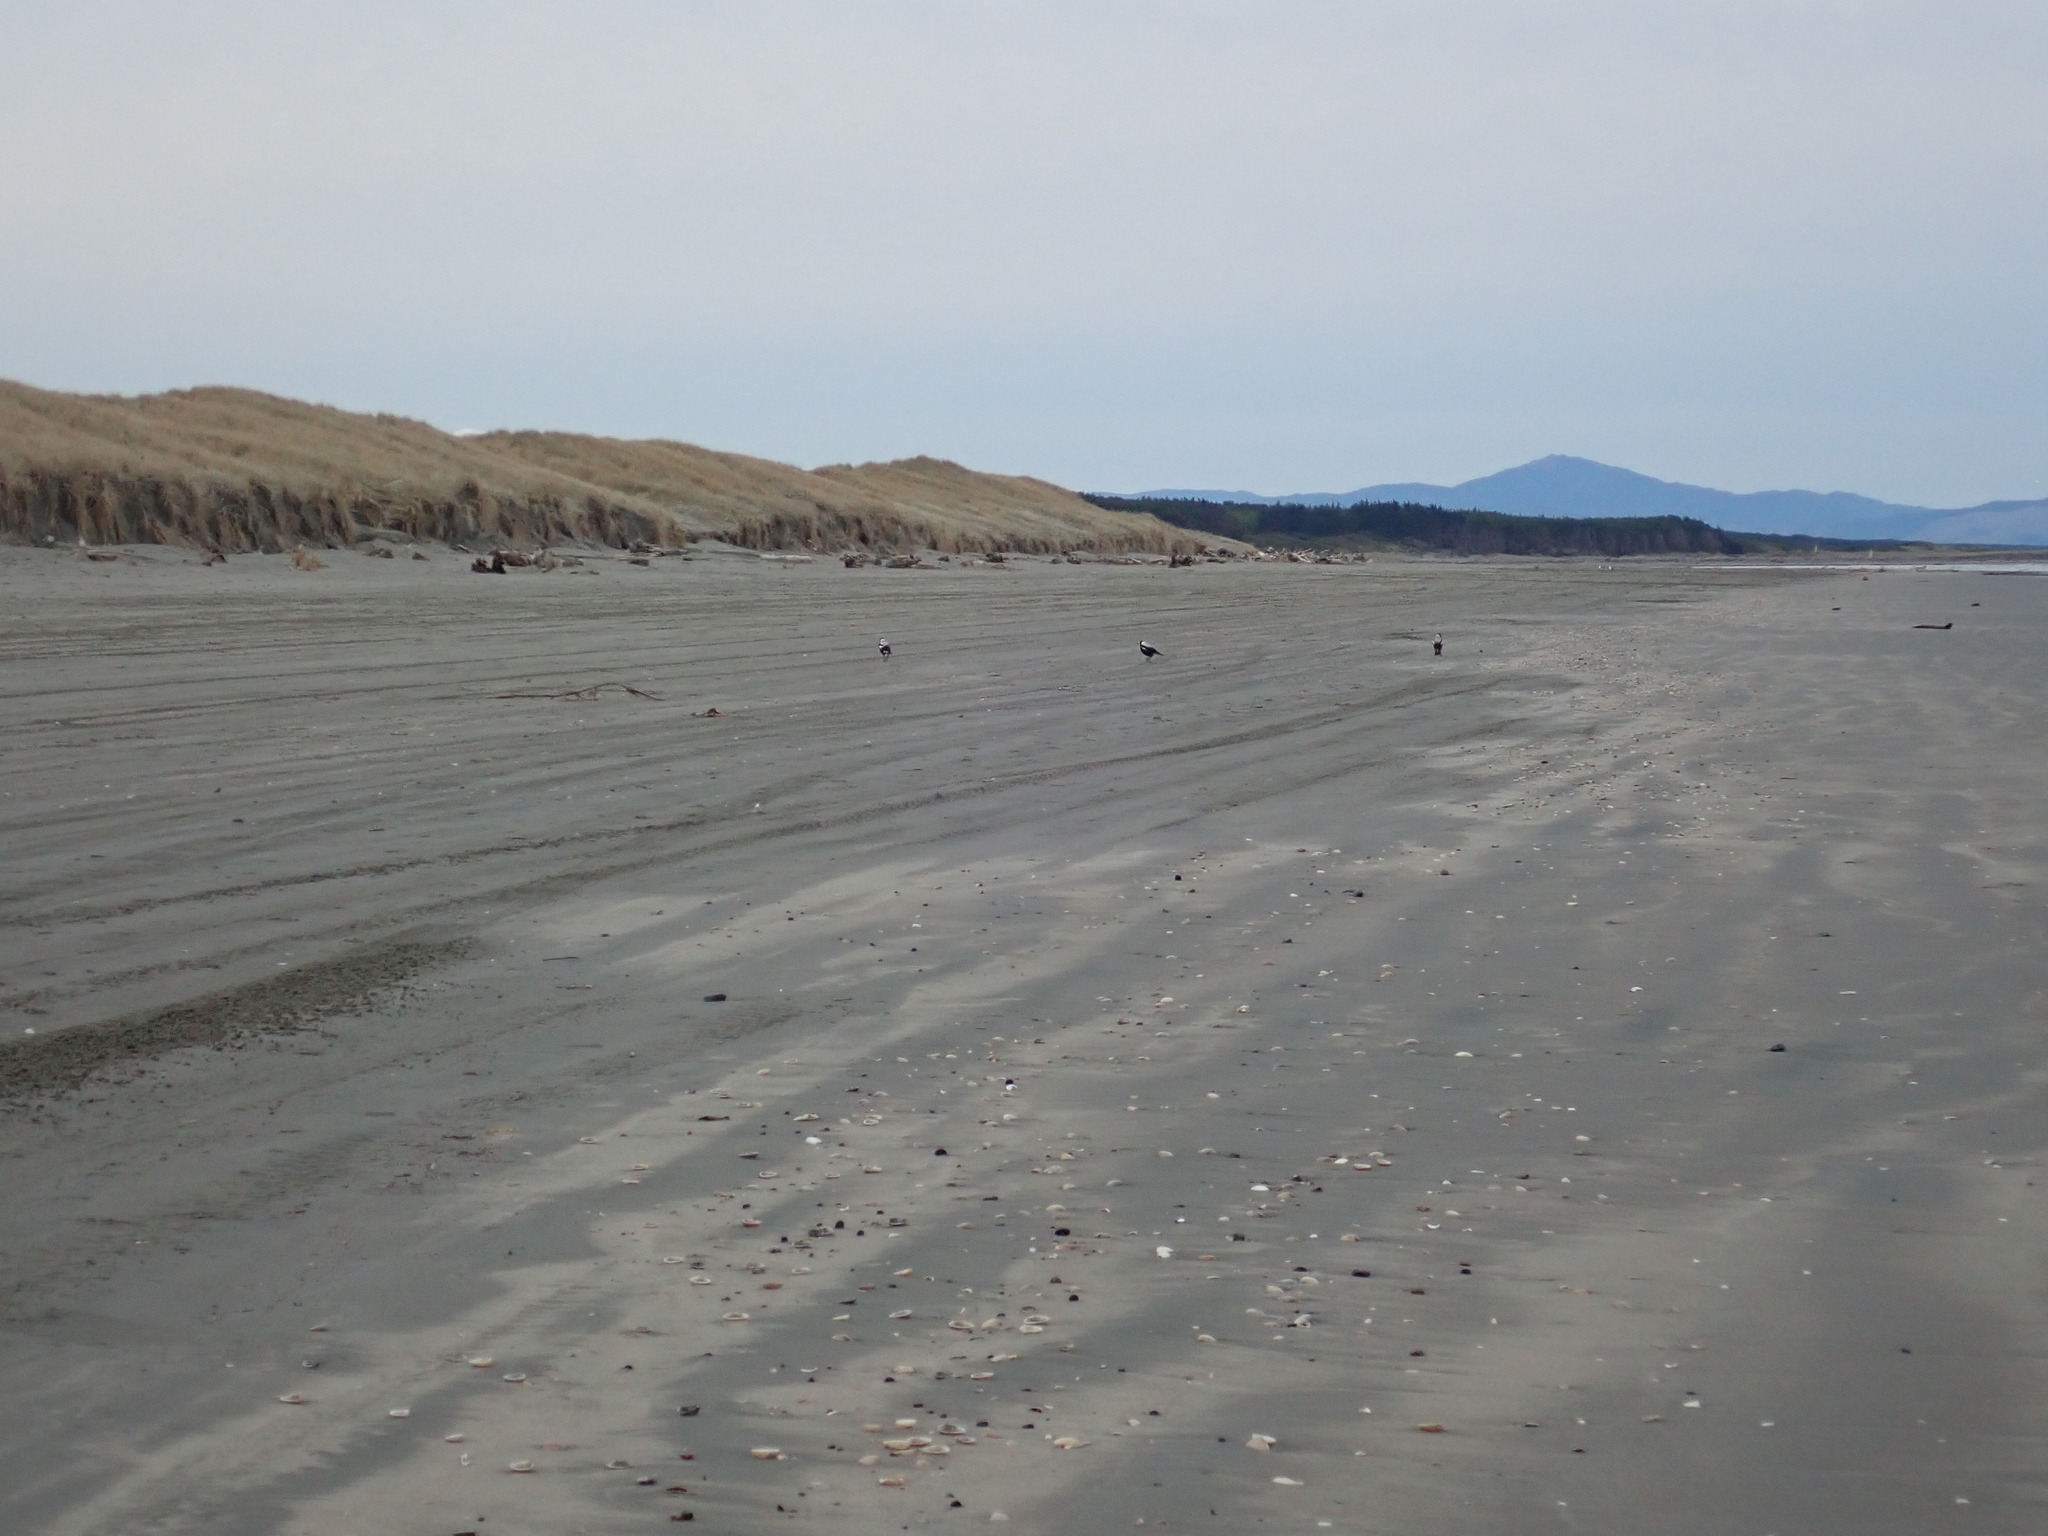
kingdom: Animalia
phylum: Chordata
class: Aves
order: Passeriformes
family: Cracticidae
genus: Gymnorhina
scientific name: Gymnorhina tibicen
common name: Australian magpie
